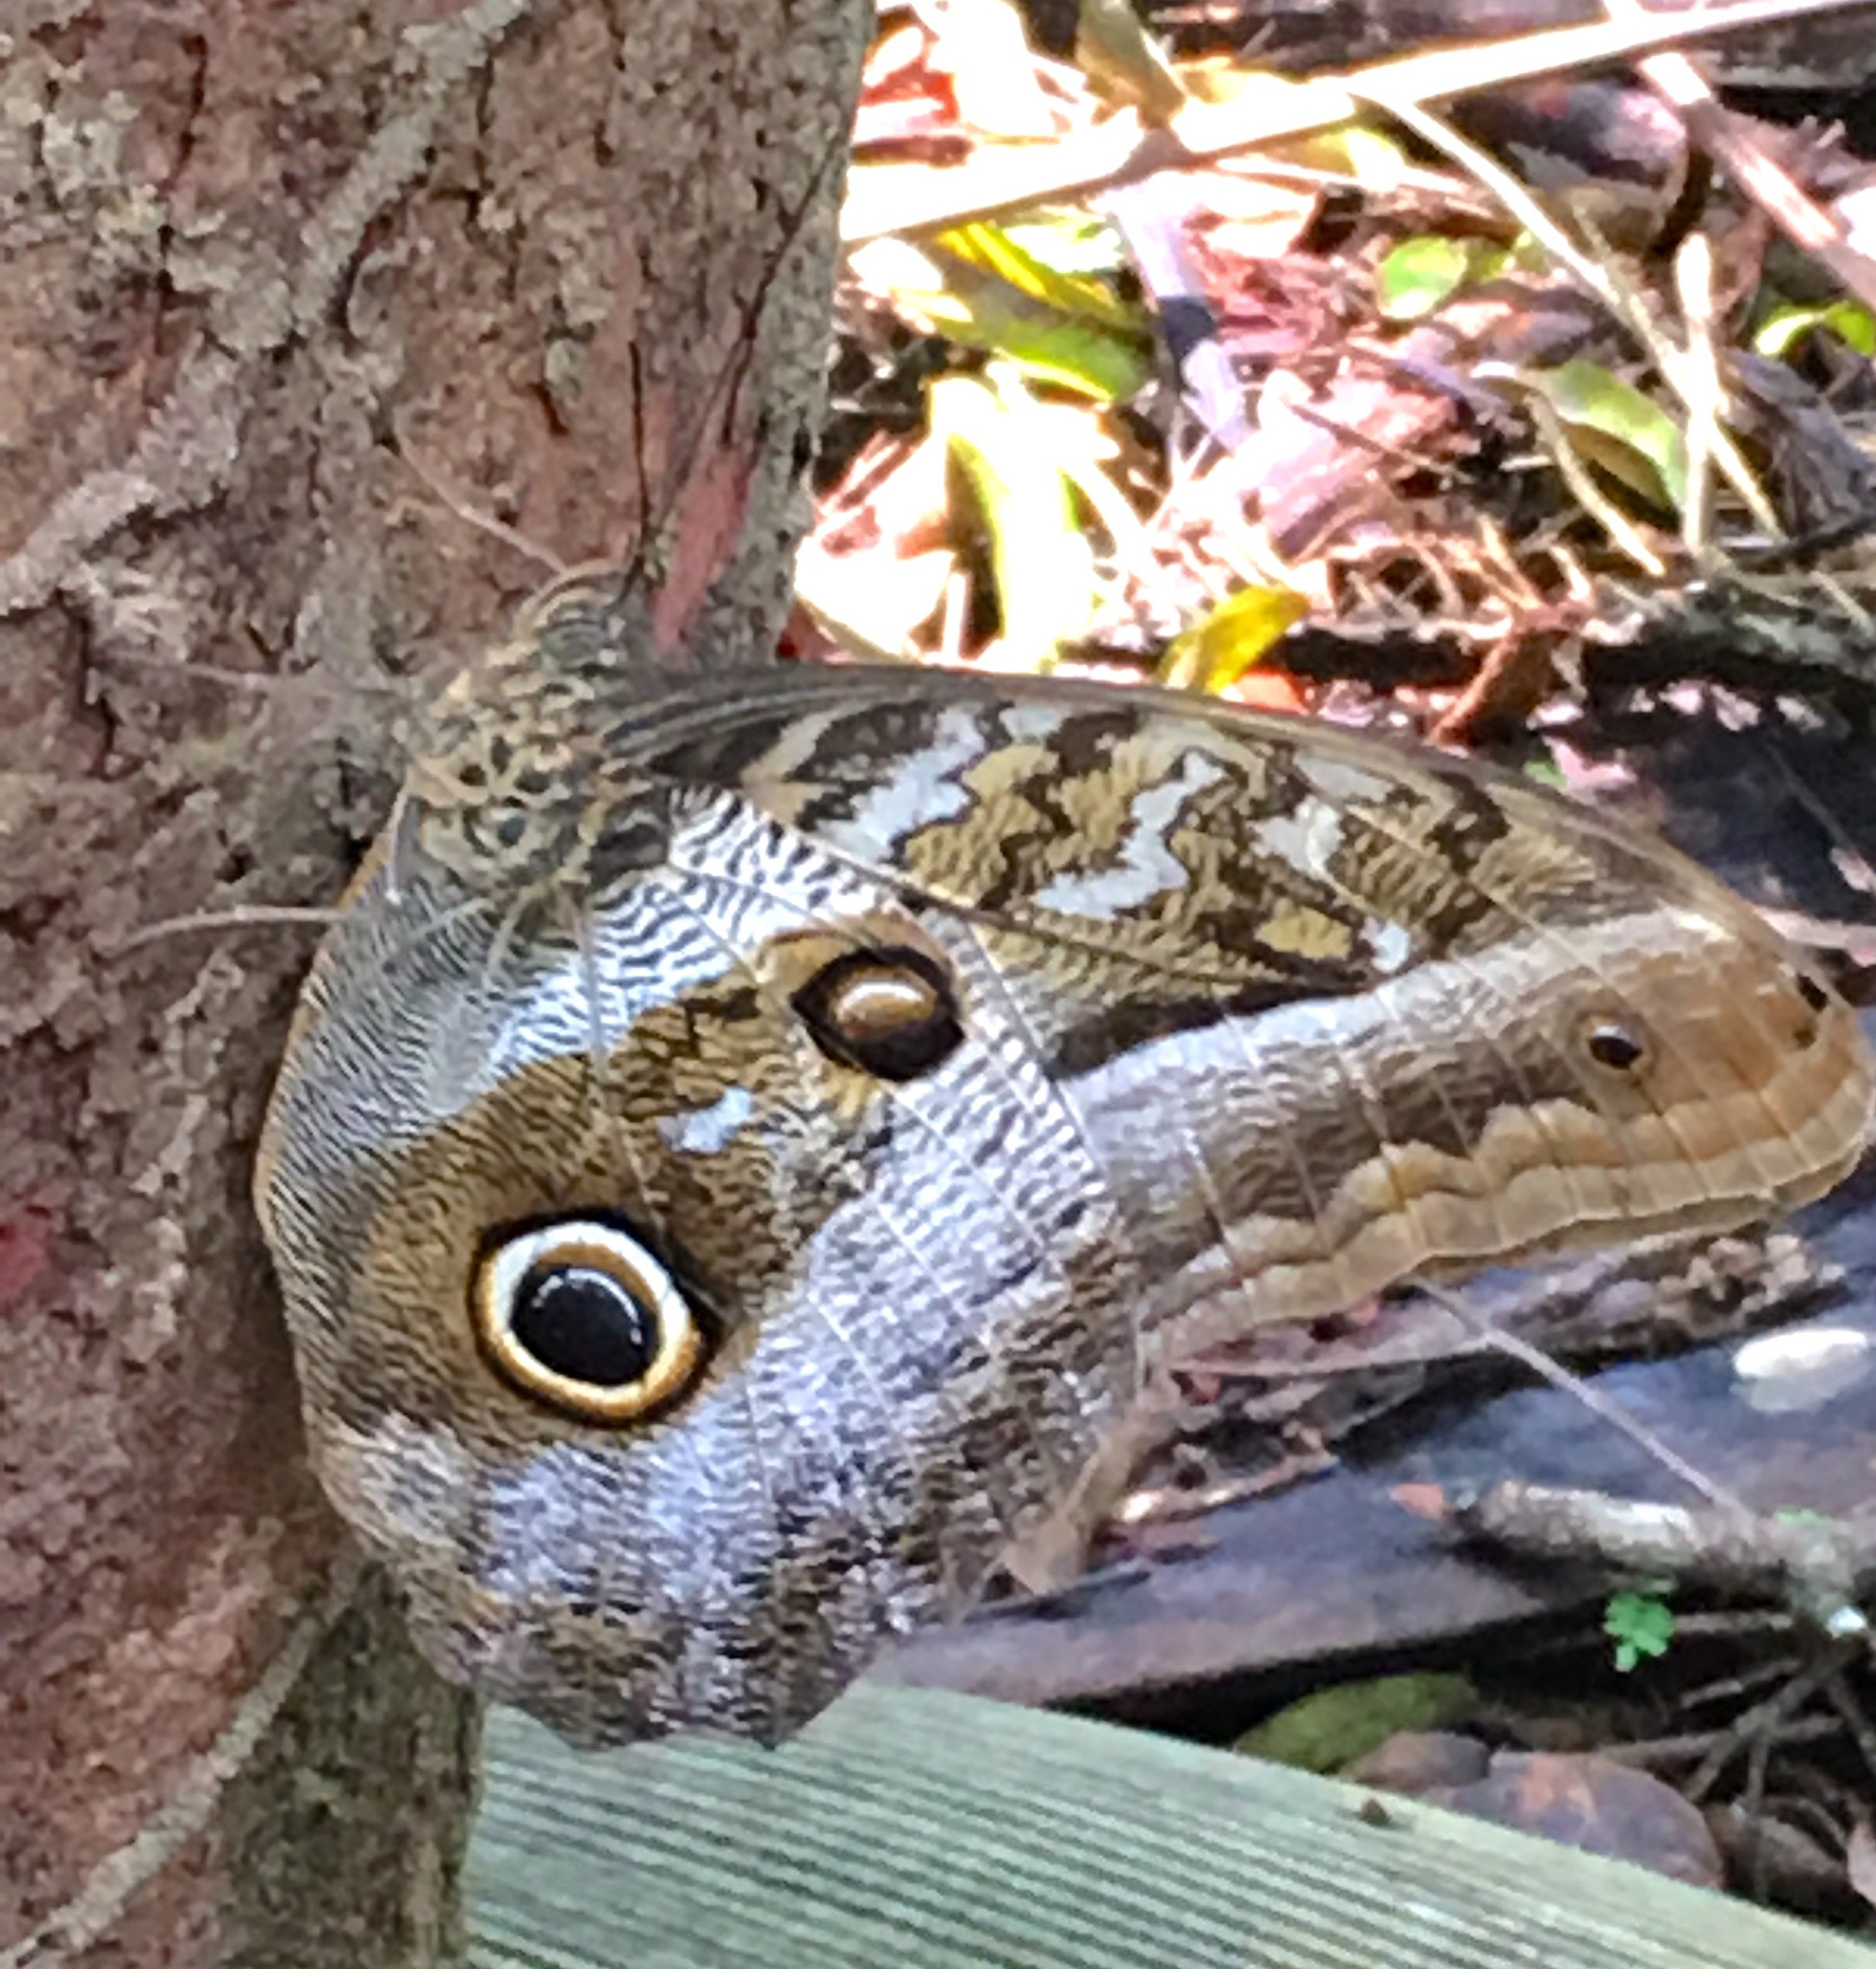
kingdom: Animalia
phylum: Arthropoda
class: Insecta
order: Lepidoptera
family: Nymphalidae
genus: Caligo
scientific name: Caligo idomeneus
